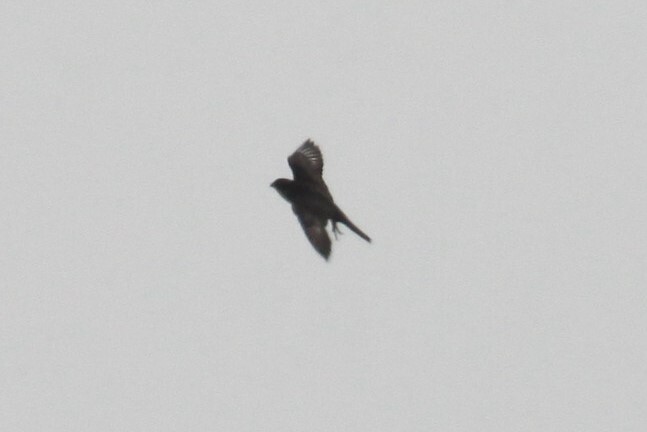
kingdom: Animalia
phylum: Chordata
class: Aves
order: Passeriformes
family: Hirundinidae
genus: Psalidoprocne
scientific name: Psalidoprocne pristoptera
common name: Black saw-wing
